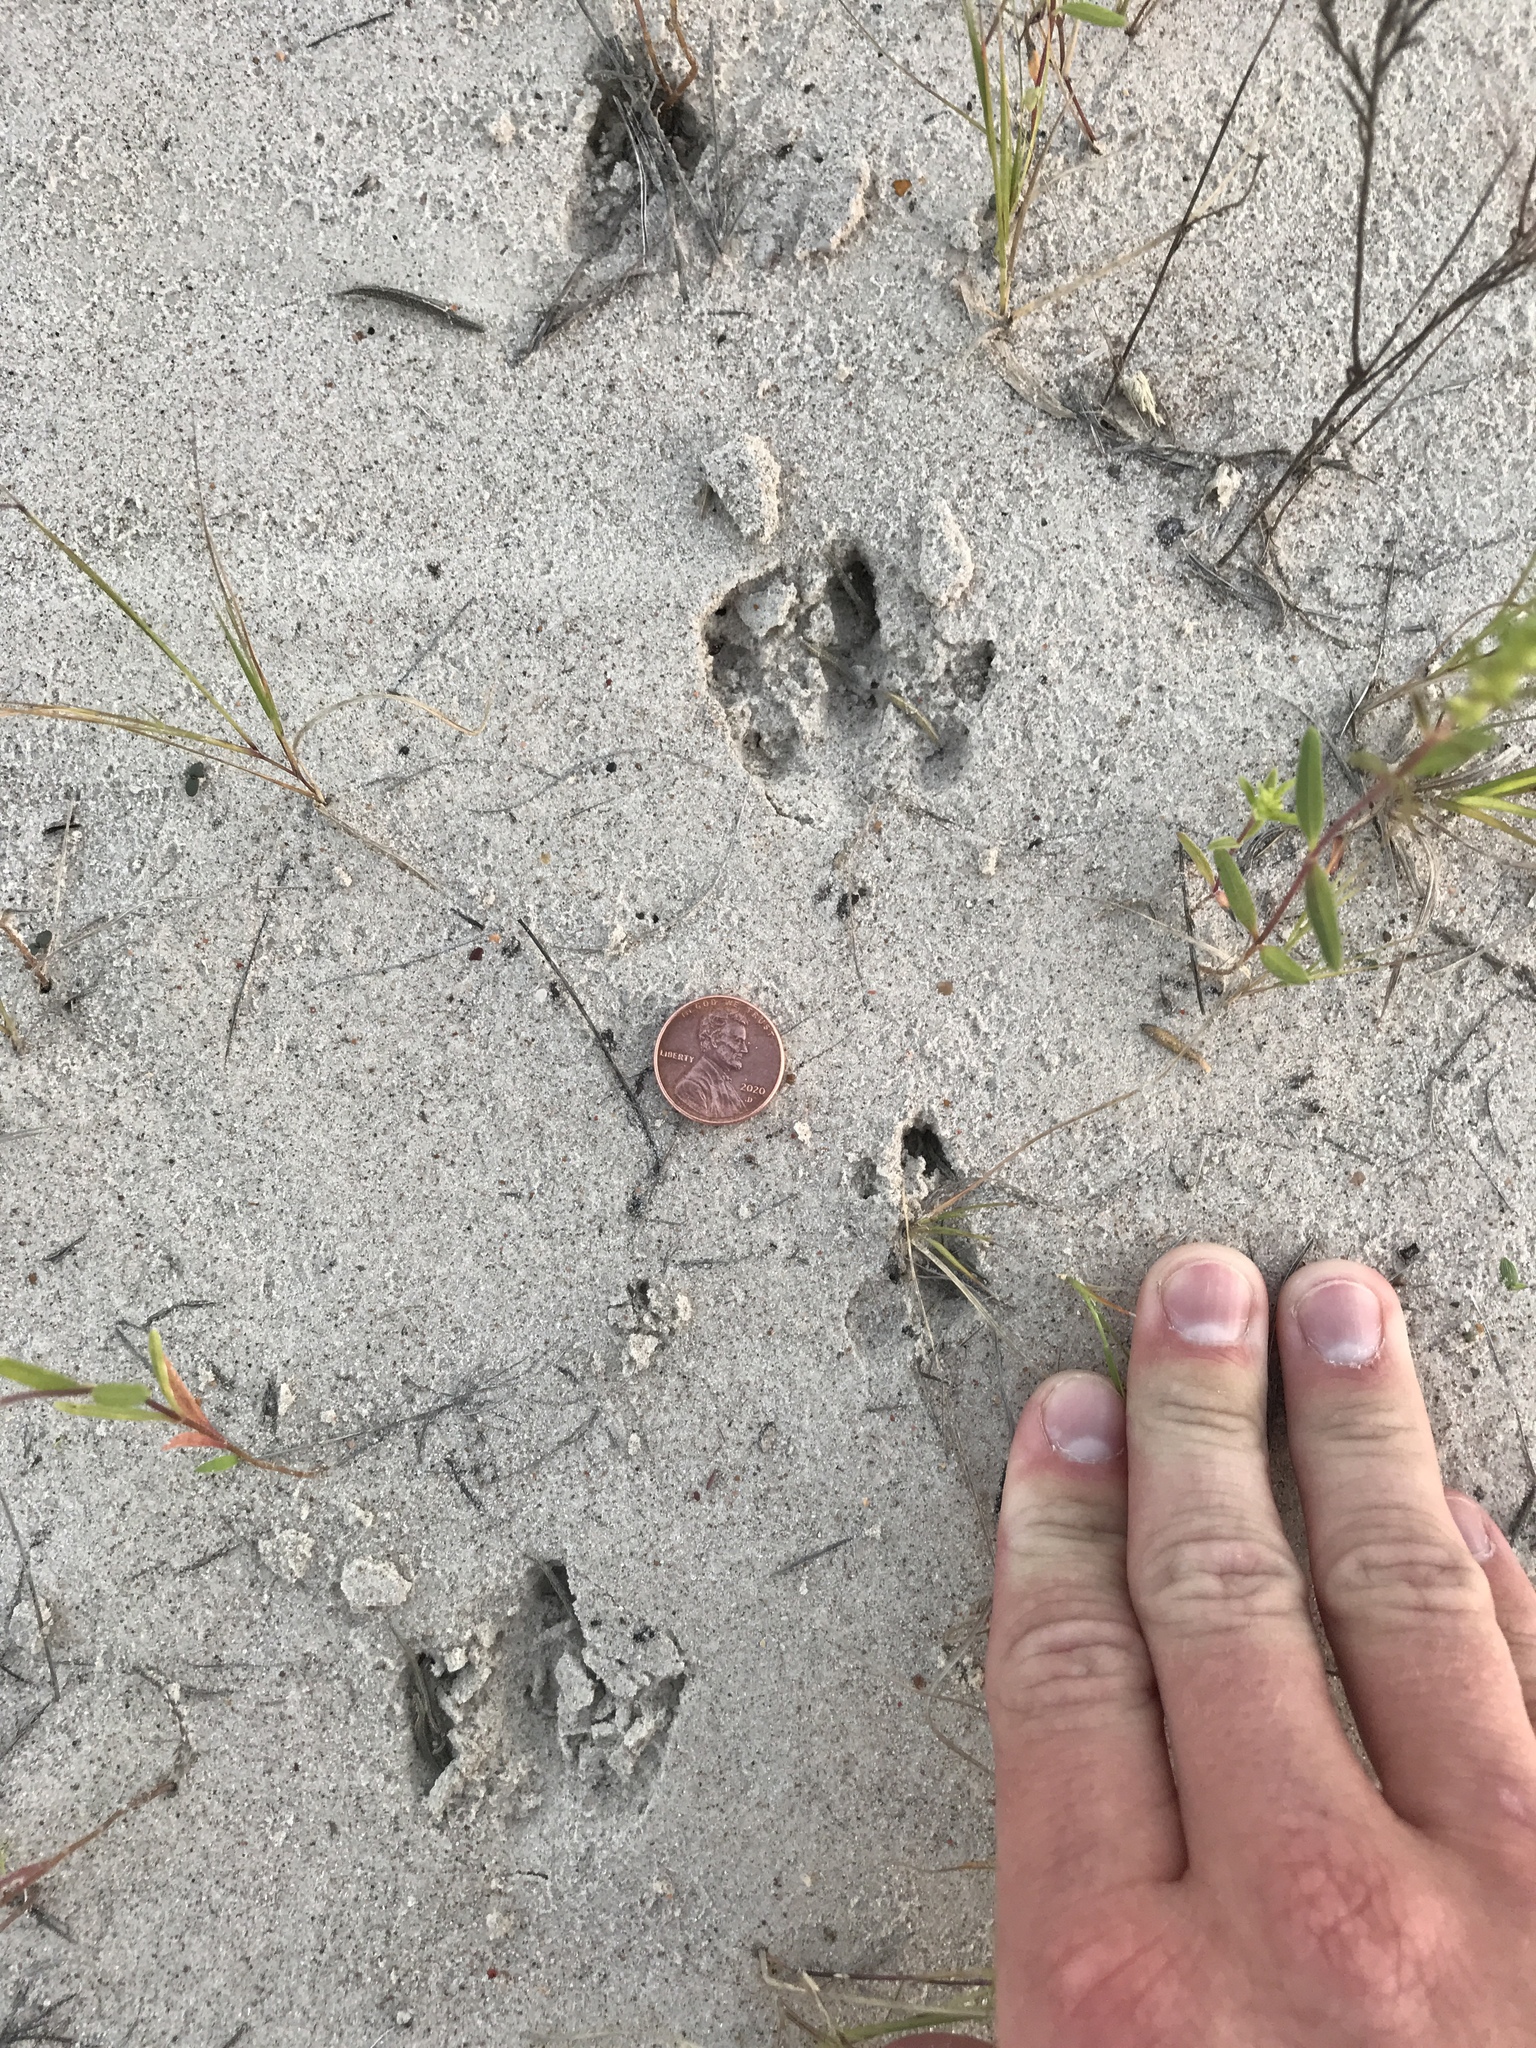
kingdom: Animalia
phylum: Chordata
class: Mammalia
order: Cingulata
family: Dasypodidae
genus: Dasypus
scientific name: Dasypus novemcinctus
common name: Nine-banded armadillo
